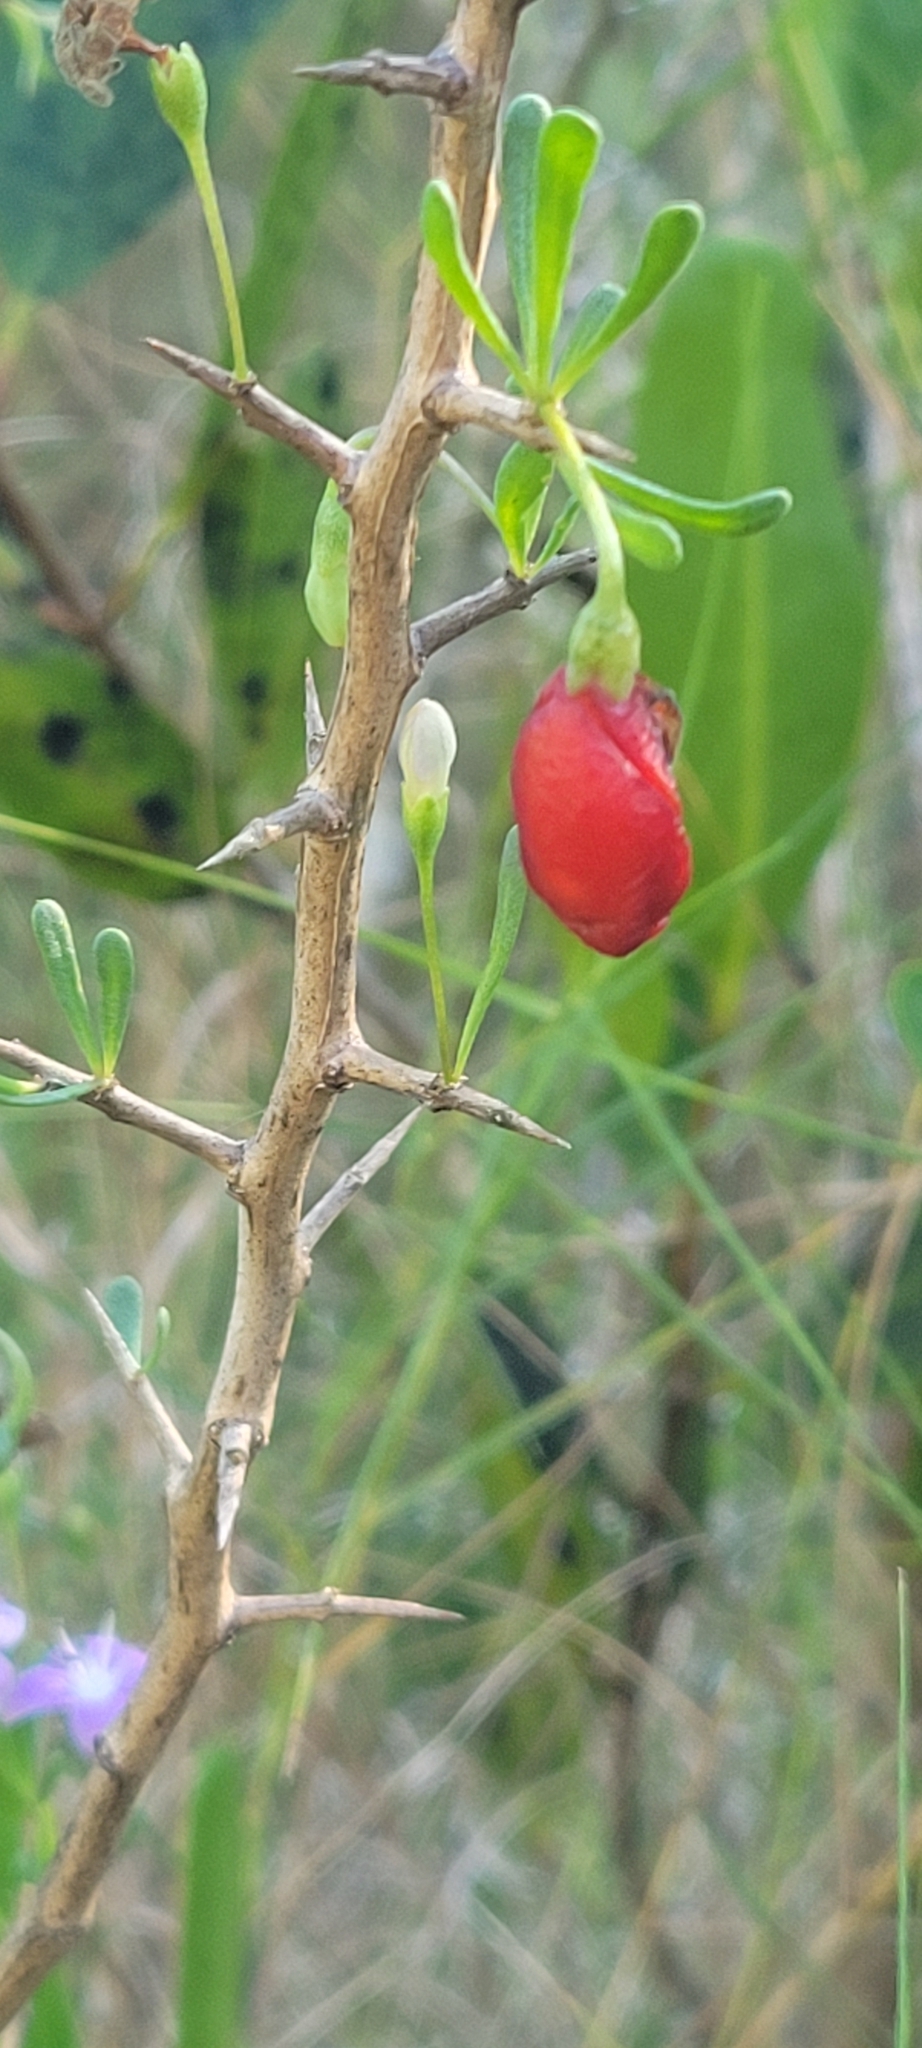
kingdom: Plantae
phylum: Tracheophyta
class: Magnoliopsida
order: Solanales
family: Solanaceae
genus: Lycium
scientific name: Lycium carolinianum
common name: Christmasberry
